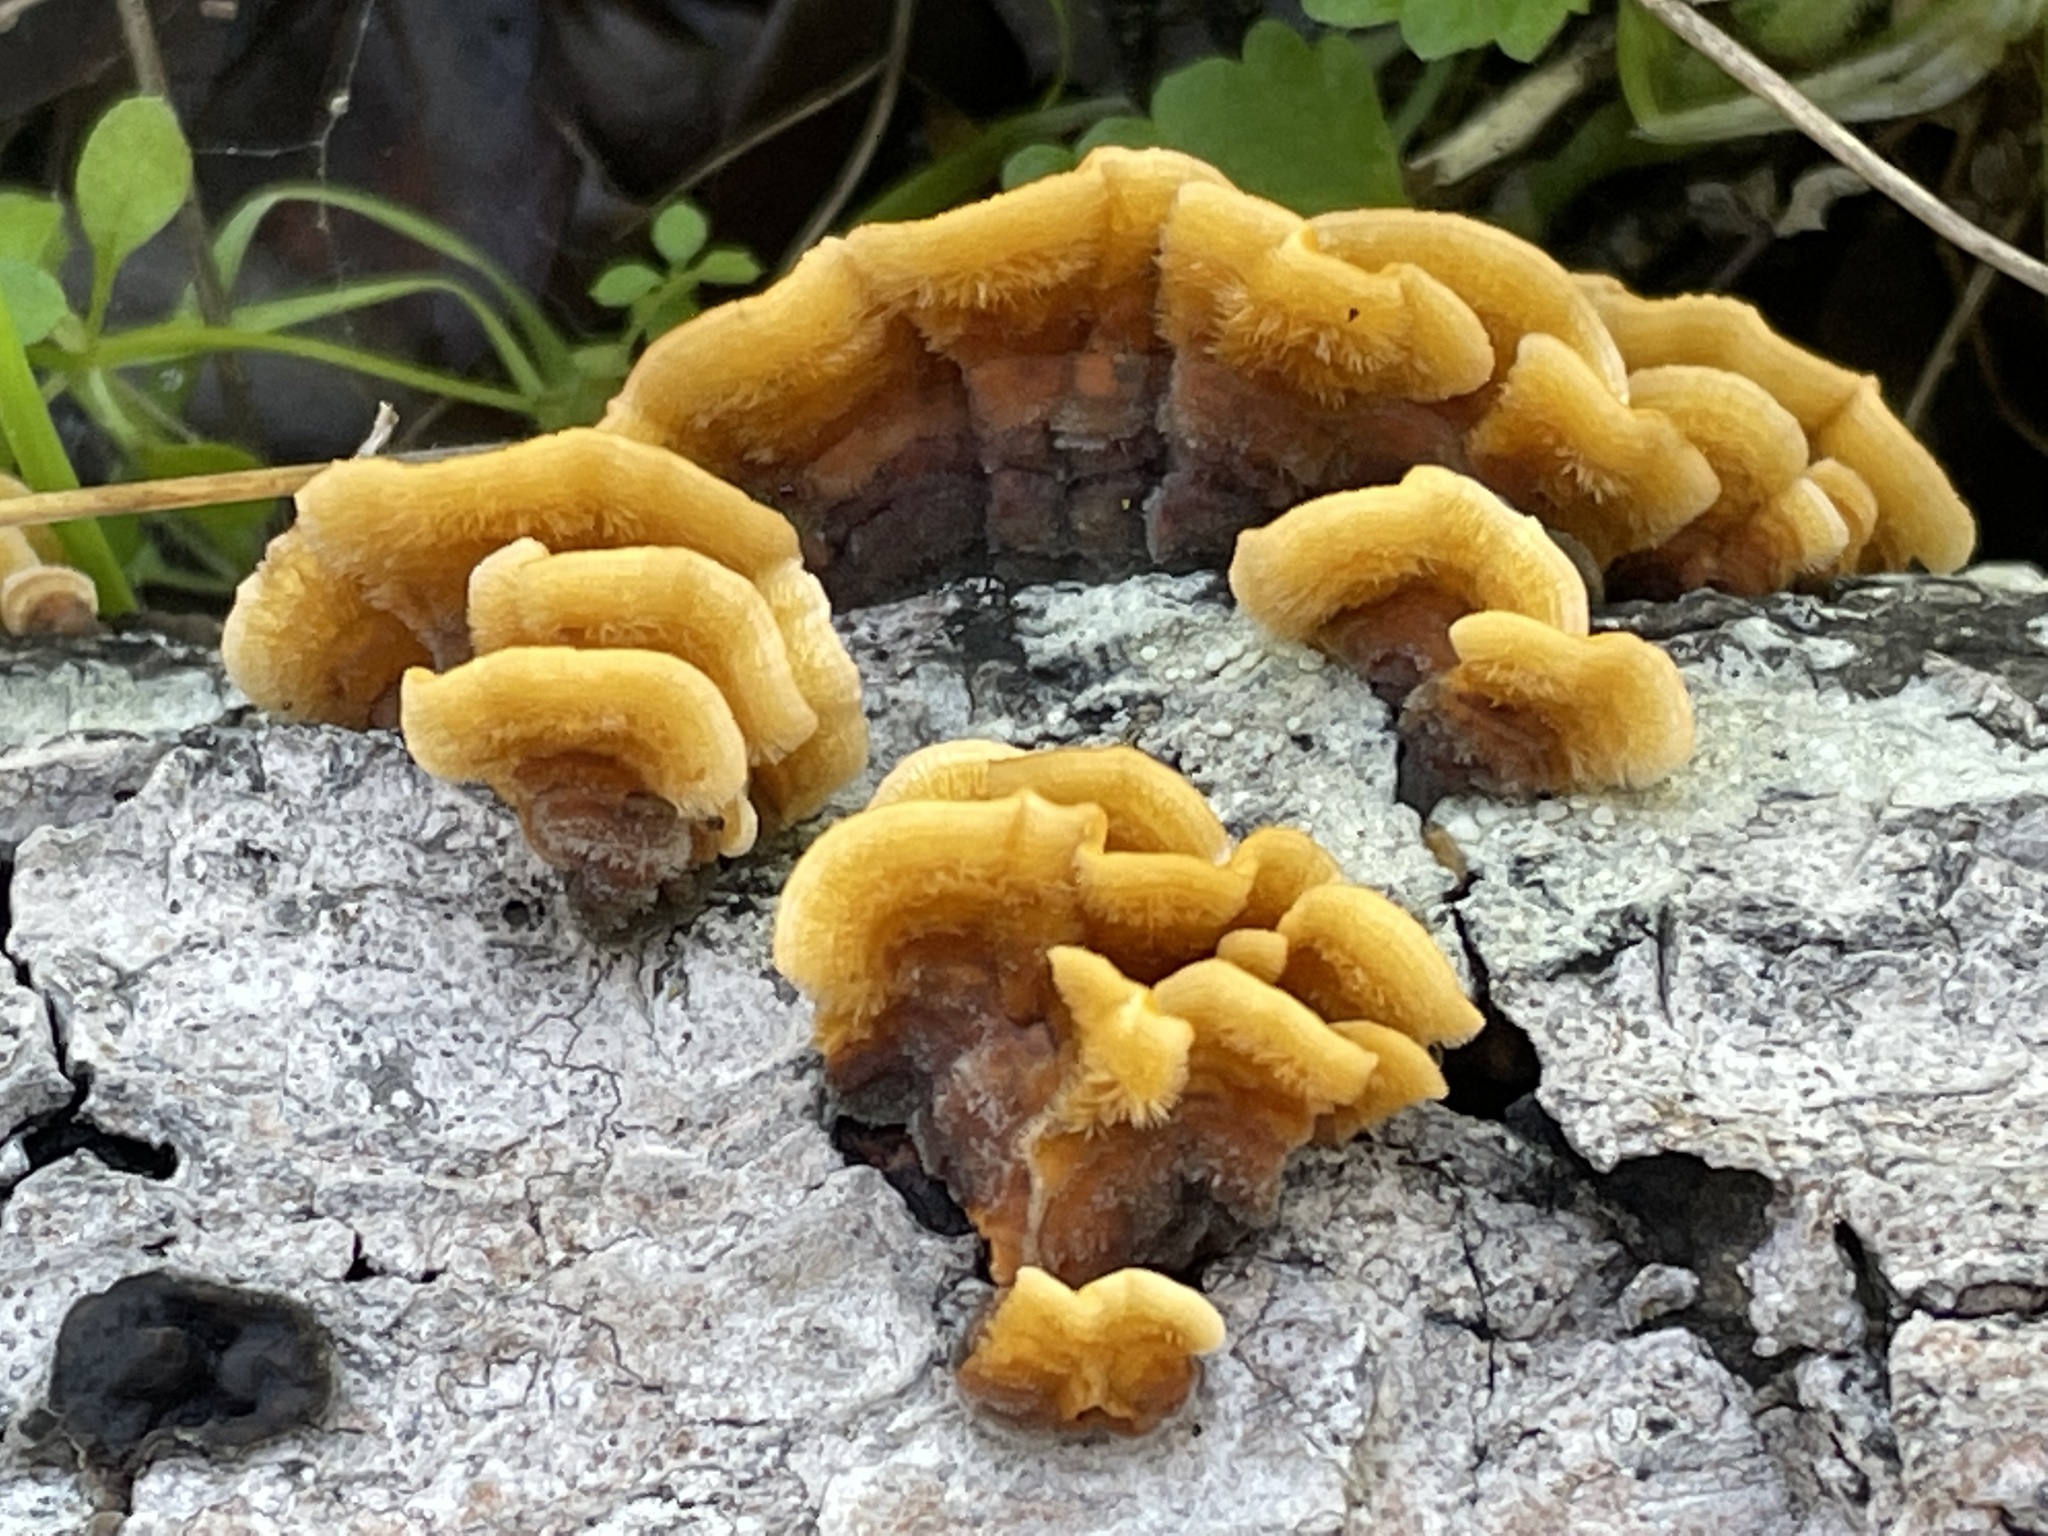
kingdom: Fungi
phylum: Basidiomycota
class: Agaricomycetes
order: Russulales
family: Stereaceae
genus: Stereum
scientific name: Stereum hirsutum
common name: Hairy curtain crust
